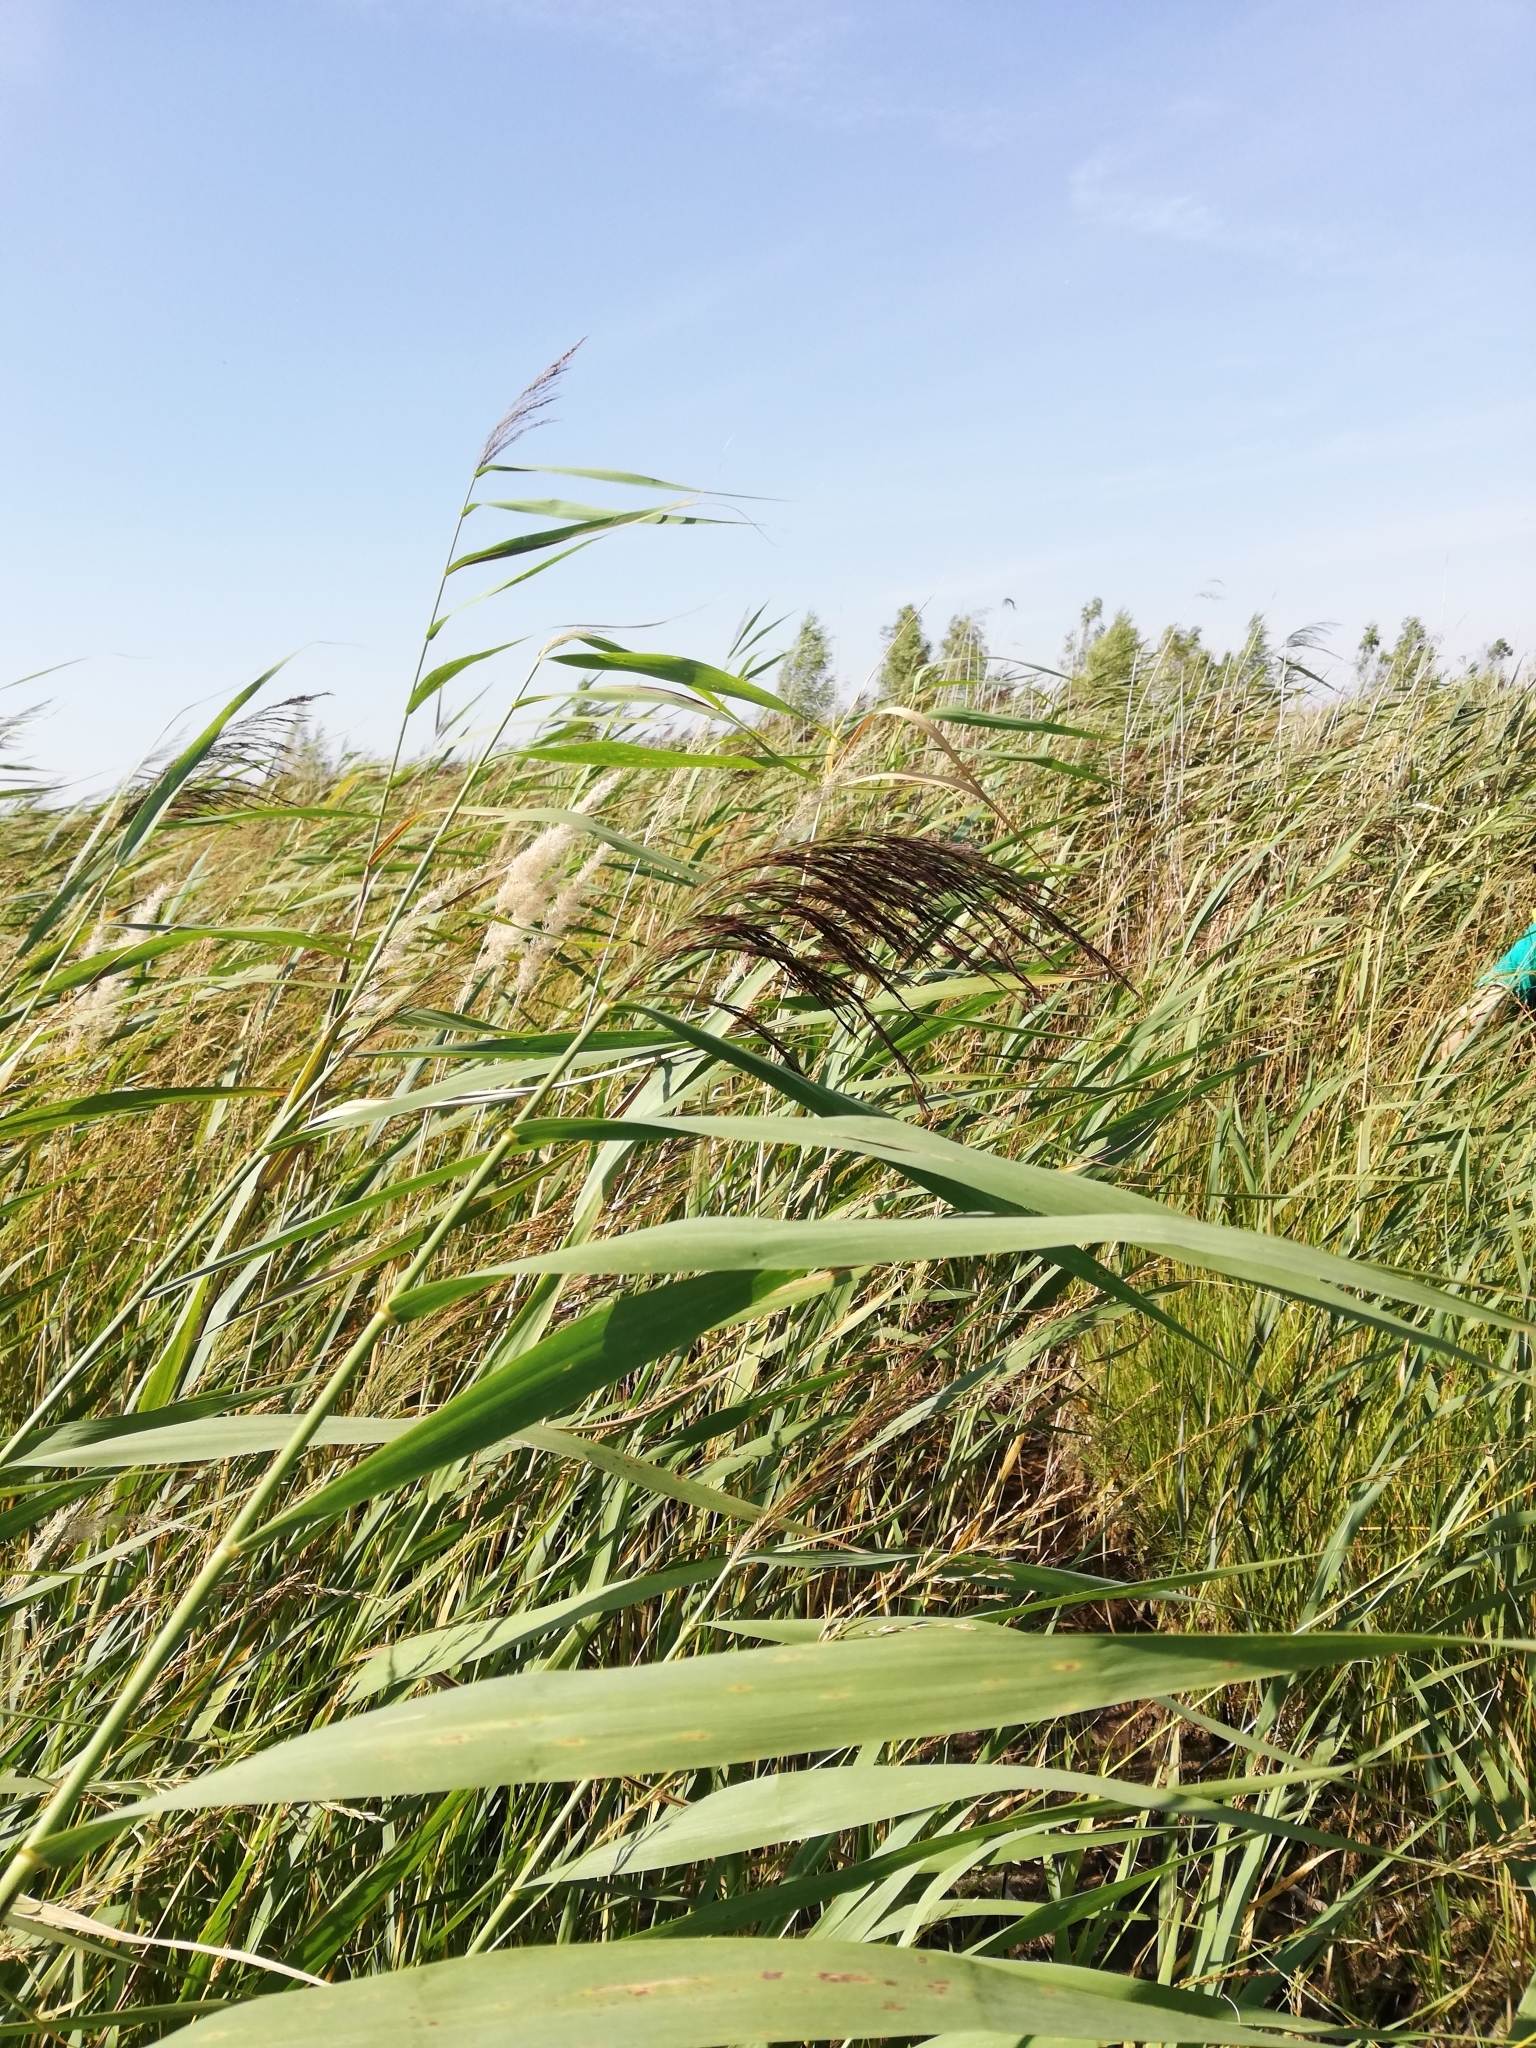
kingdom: Plantae
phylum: Tracheophyta
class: Liliopsida
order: Poales
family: Poaceae
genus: Phragmites
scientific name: Phragmites australis
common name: Common reed
